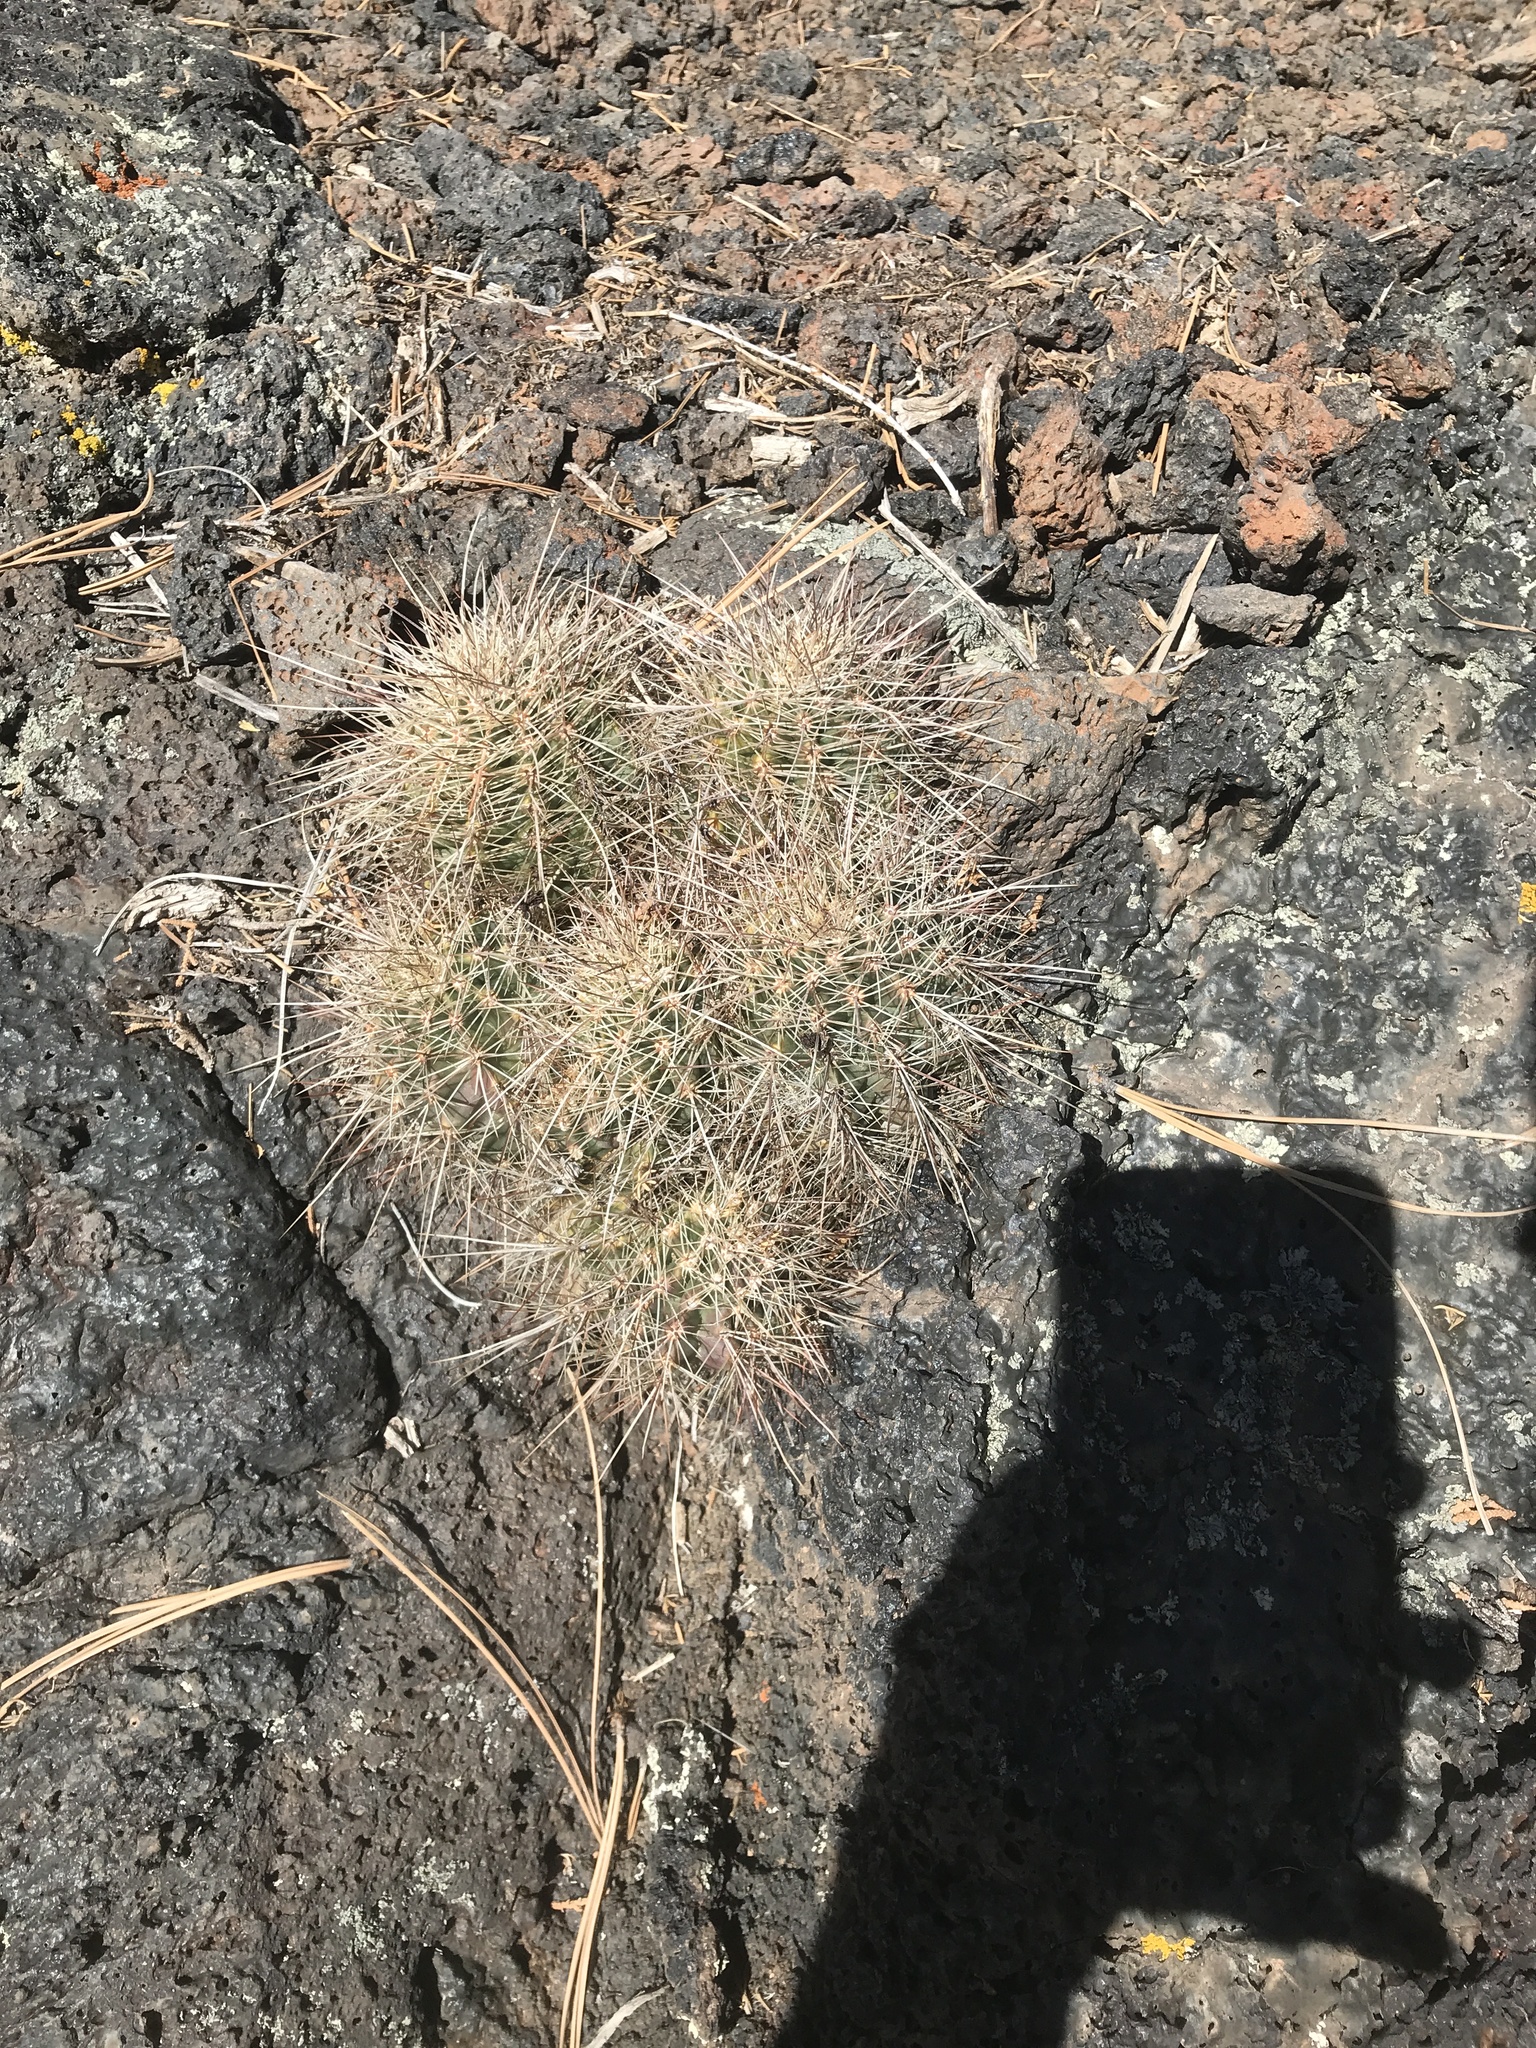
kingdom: Plantae
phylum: Tracheophyta
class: Magnoliopsida
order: Caryophyllales
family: Cactaceae
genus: Echinocereus
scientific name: Echinocereus coccineus
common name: Scarlet hedgehog cactus
